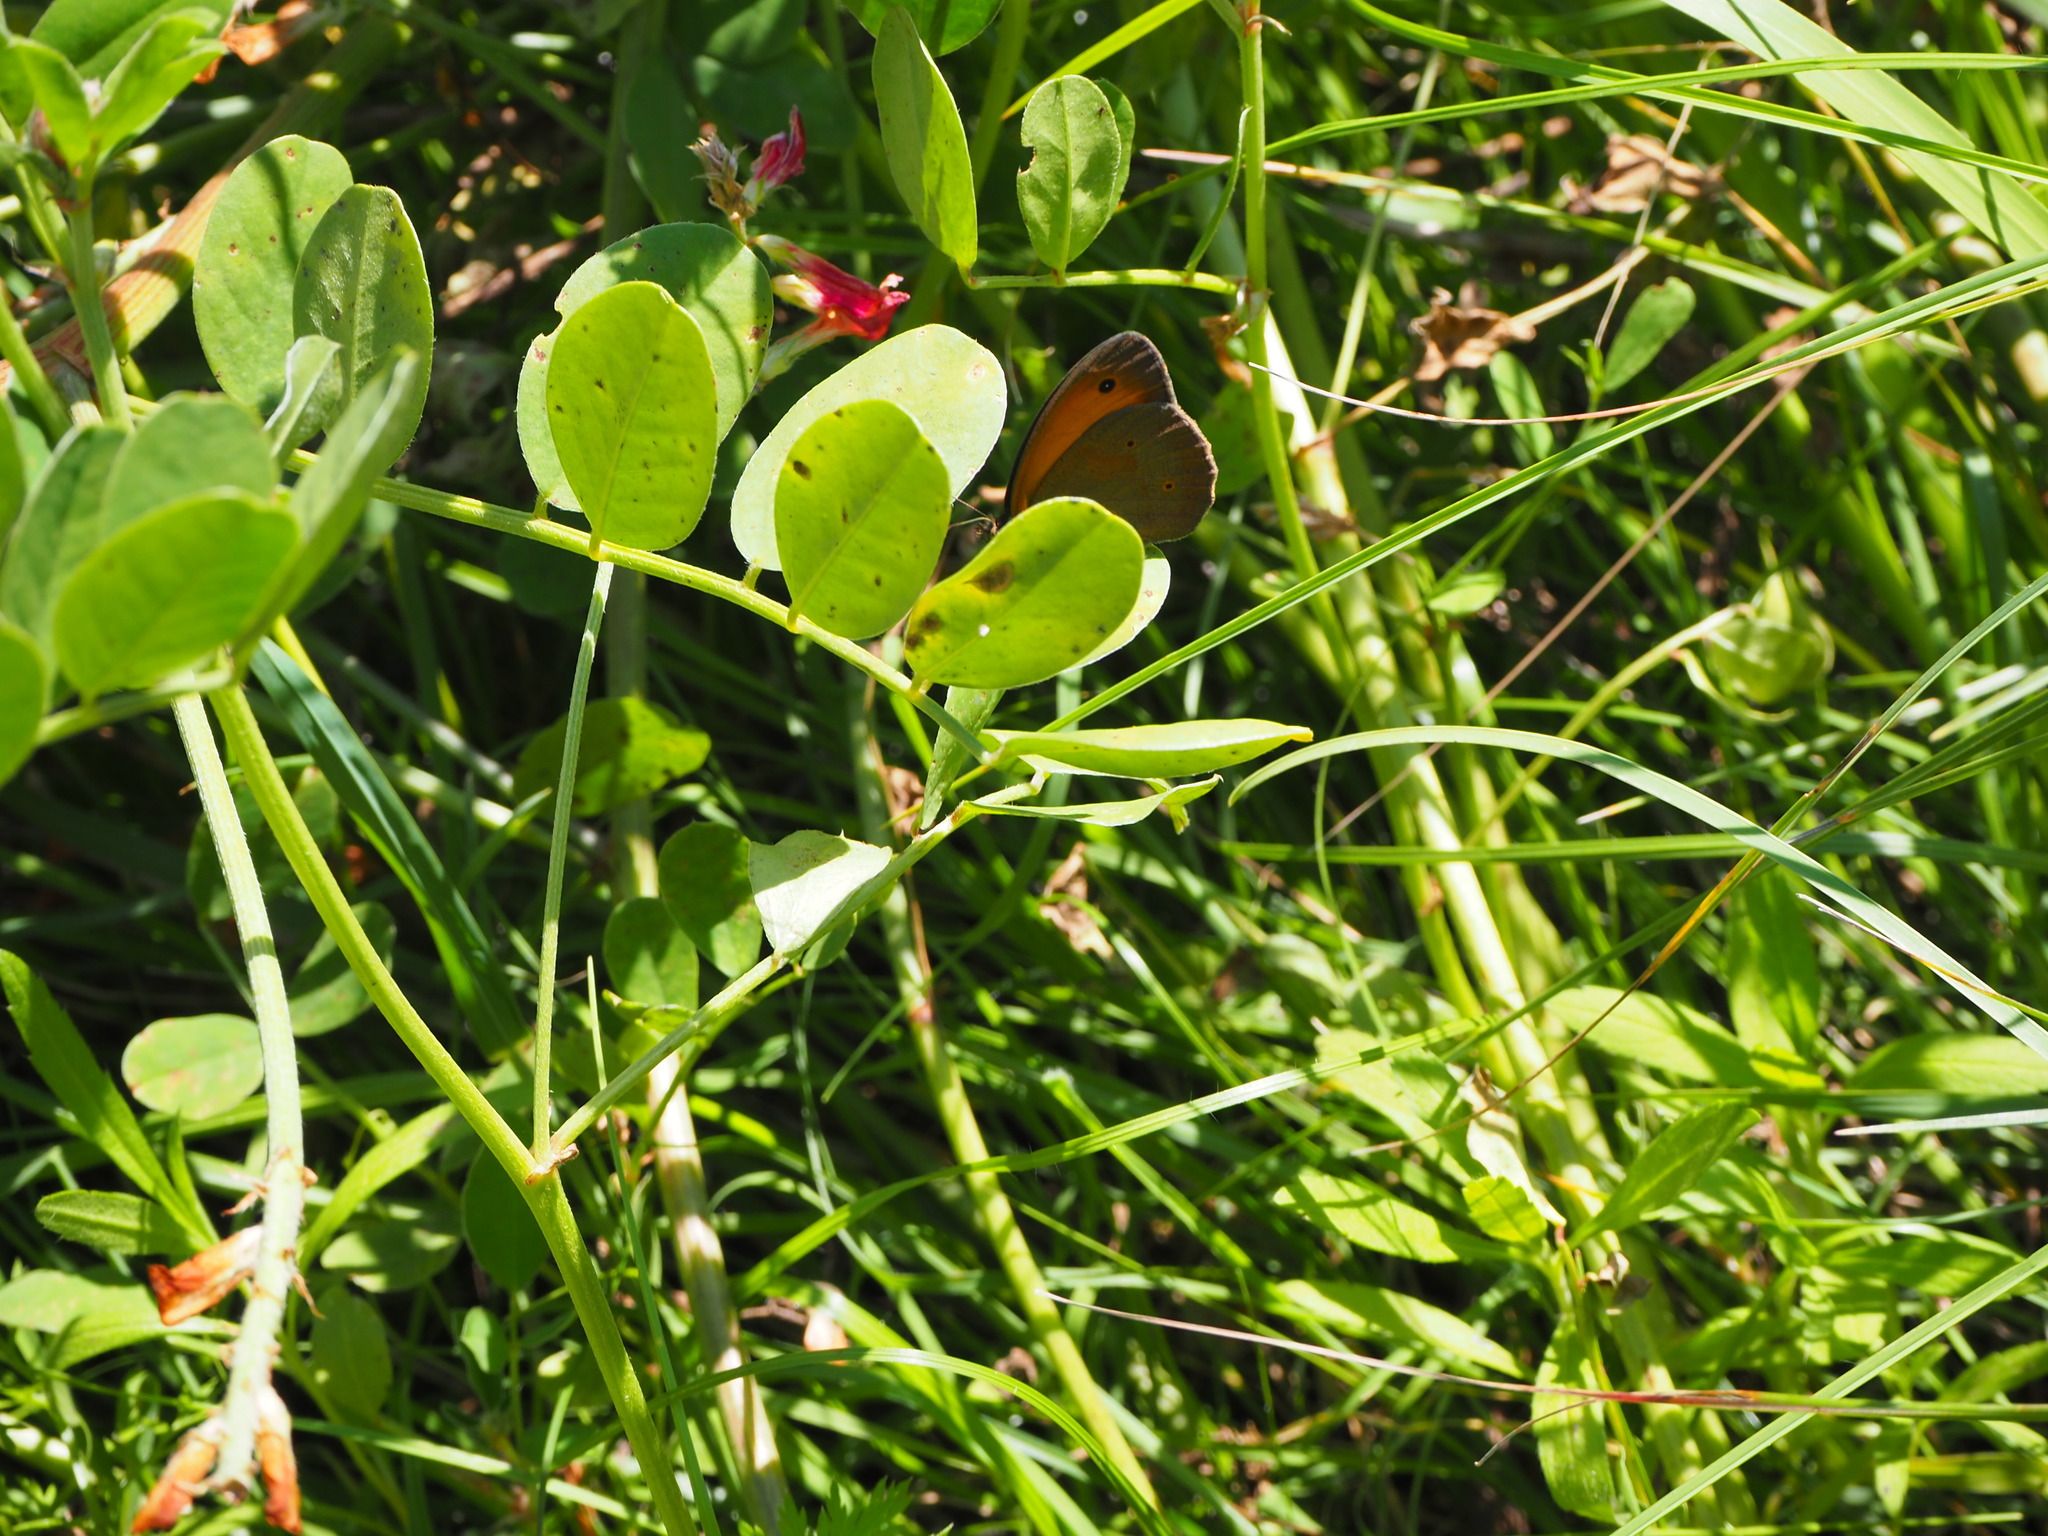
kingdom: Animalia
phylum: Arthropoda
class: Insecta
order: Lepidoptera
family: Nymphalidae
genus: Maniola
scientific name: Maniola jurtina
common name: Meadow brown
